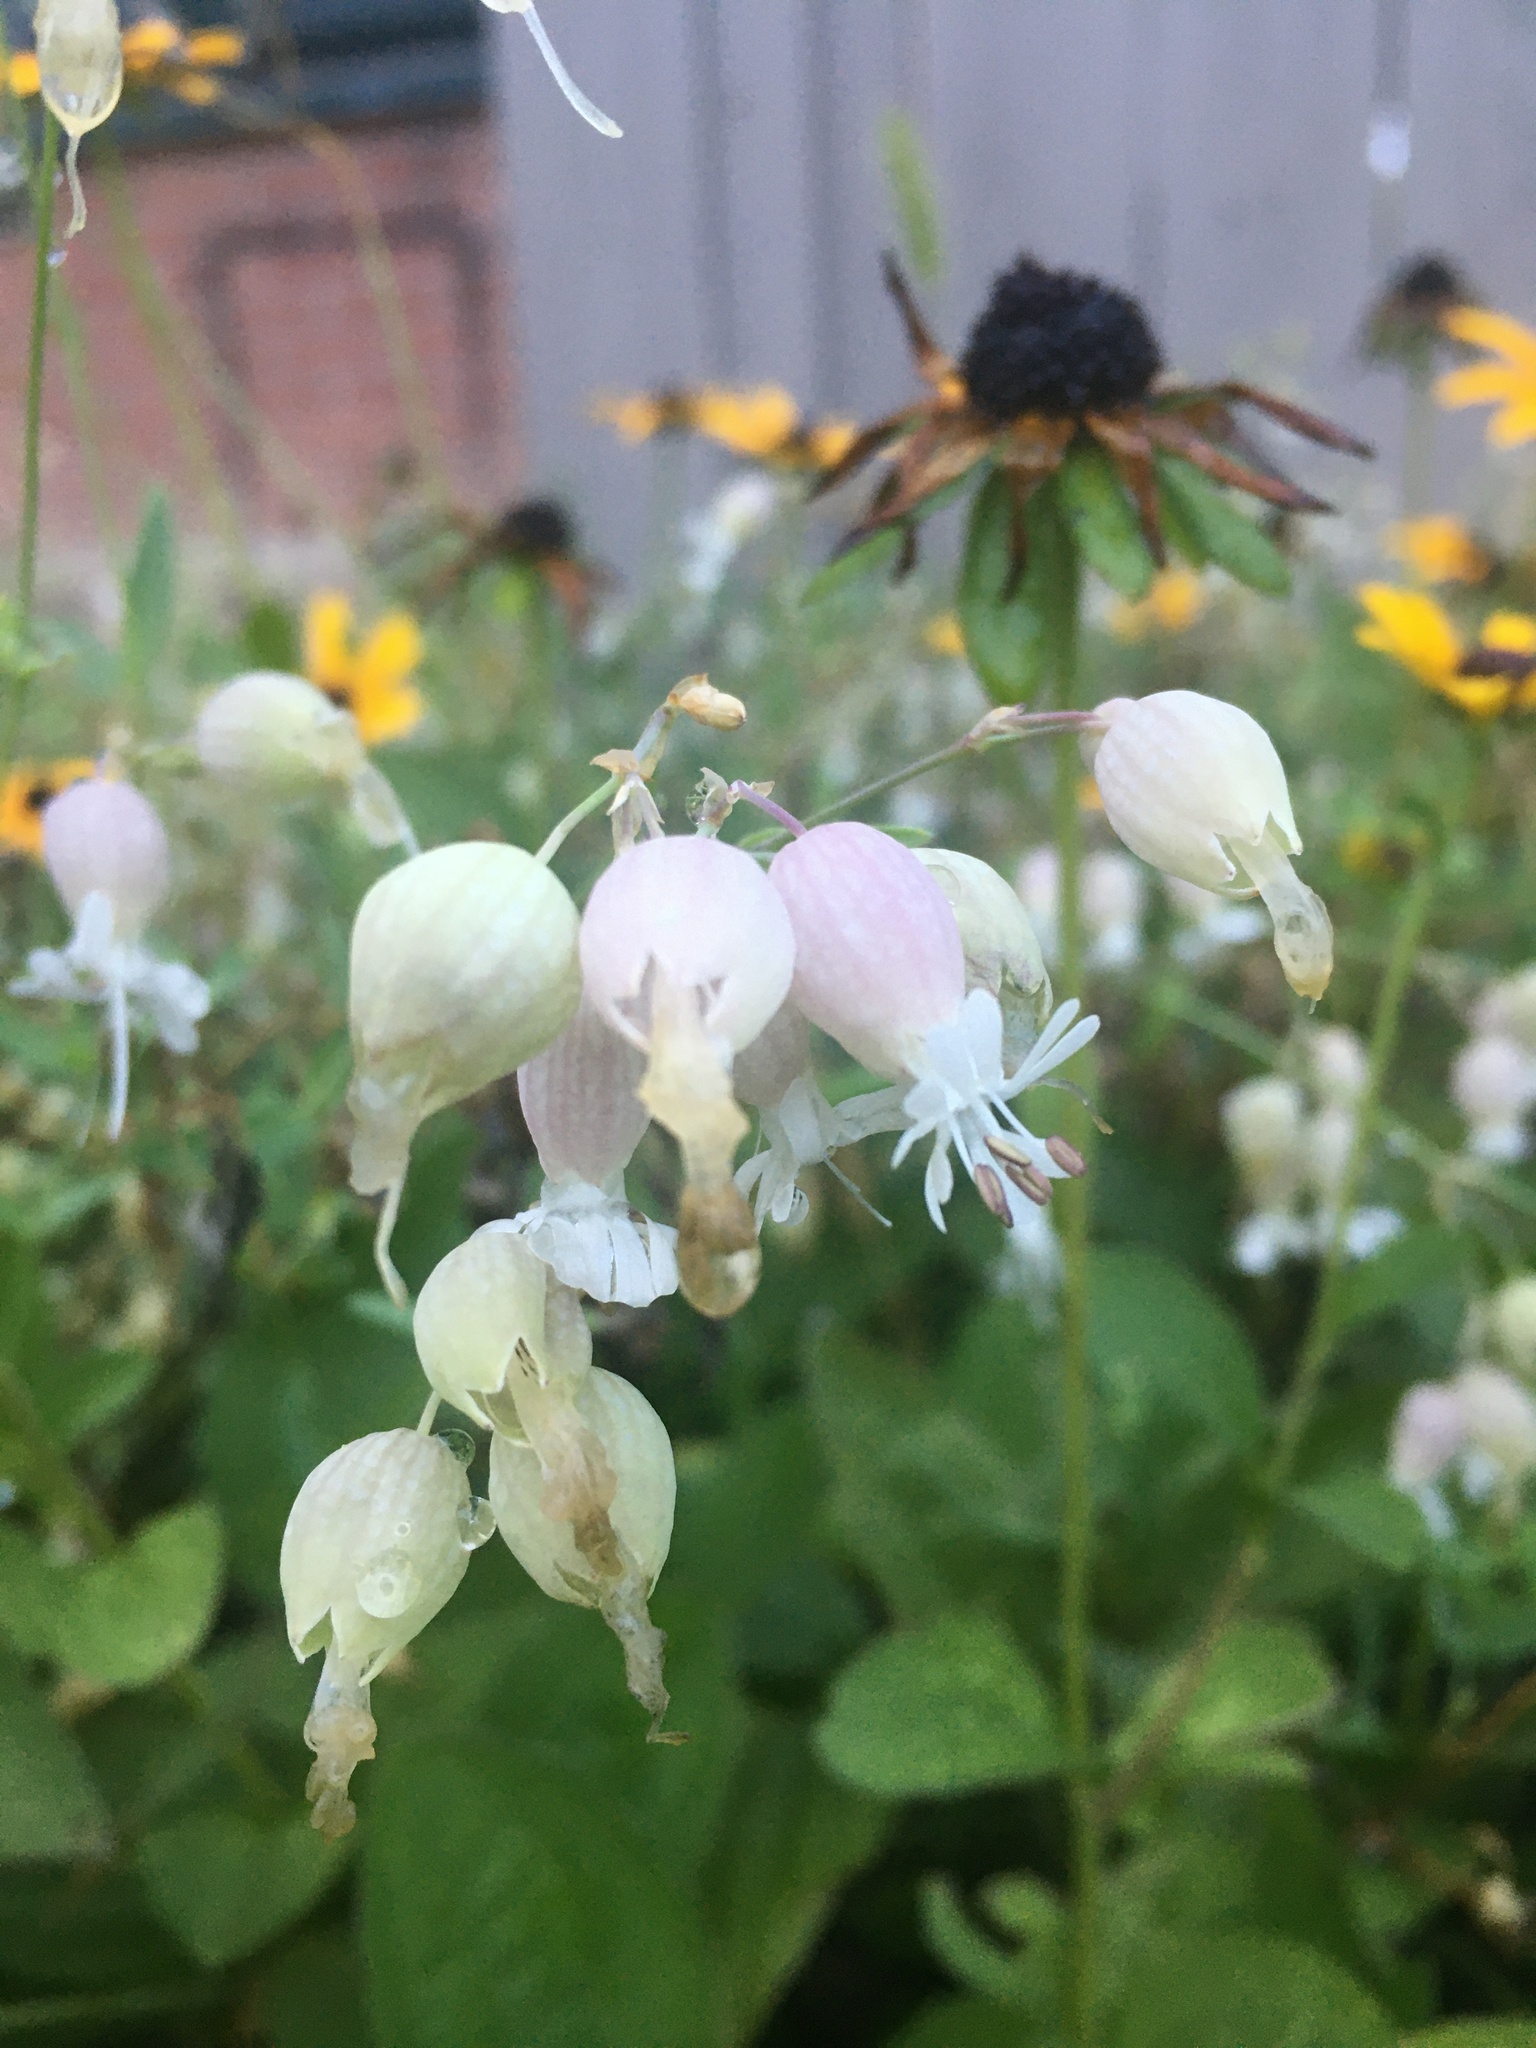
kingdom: Plantae
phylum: Tracheophyta
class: Magnoliopsida
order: Caryophyllales
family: Caryophyllaceae
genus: Silene
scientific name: Silene vulgaris
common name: Bladder campion
